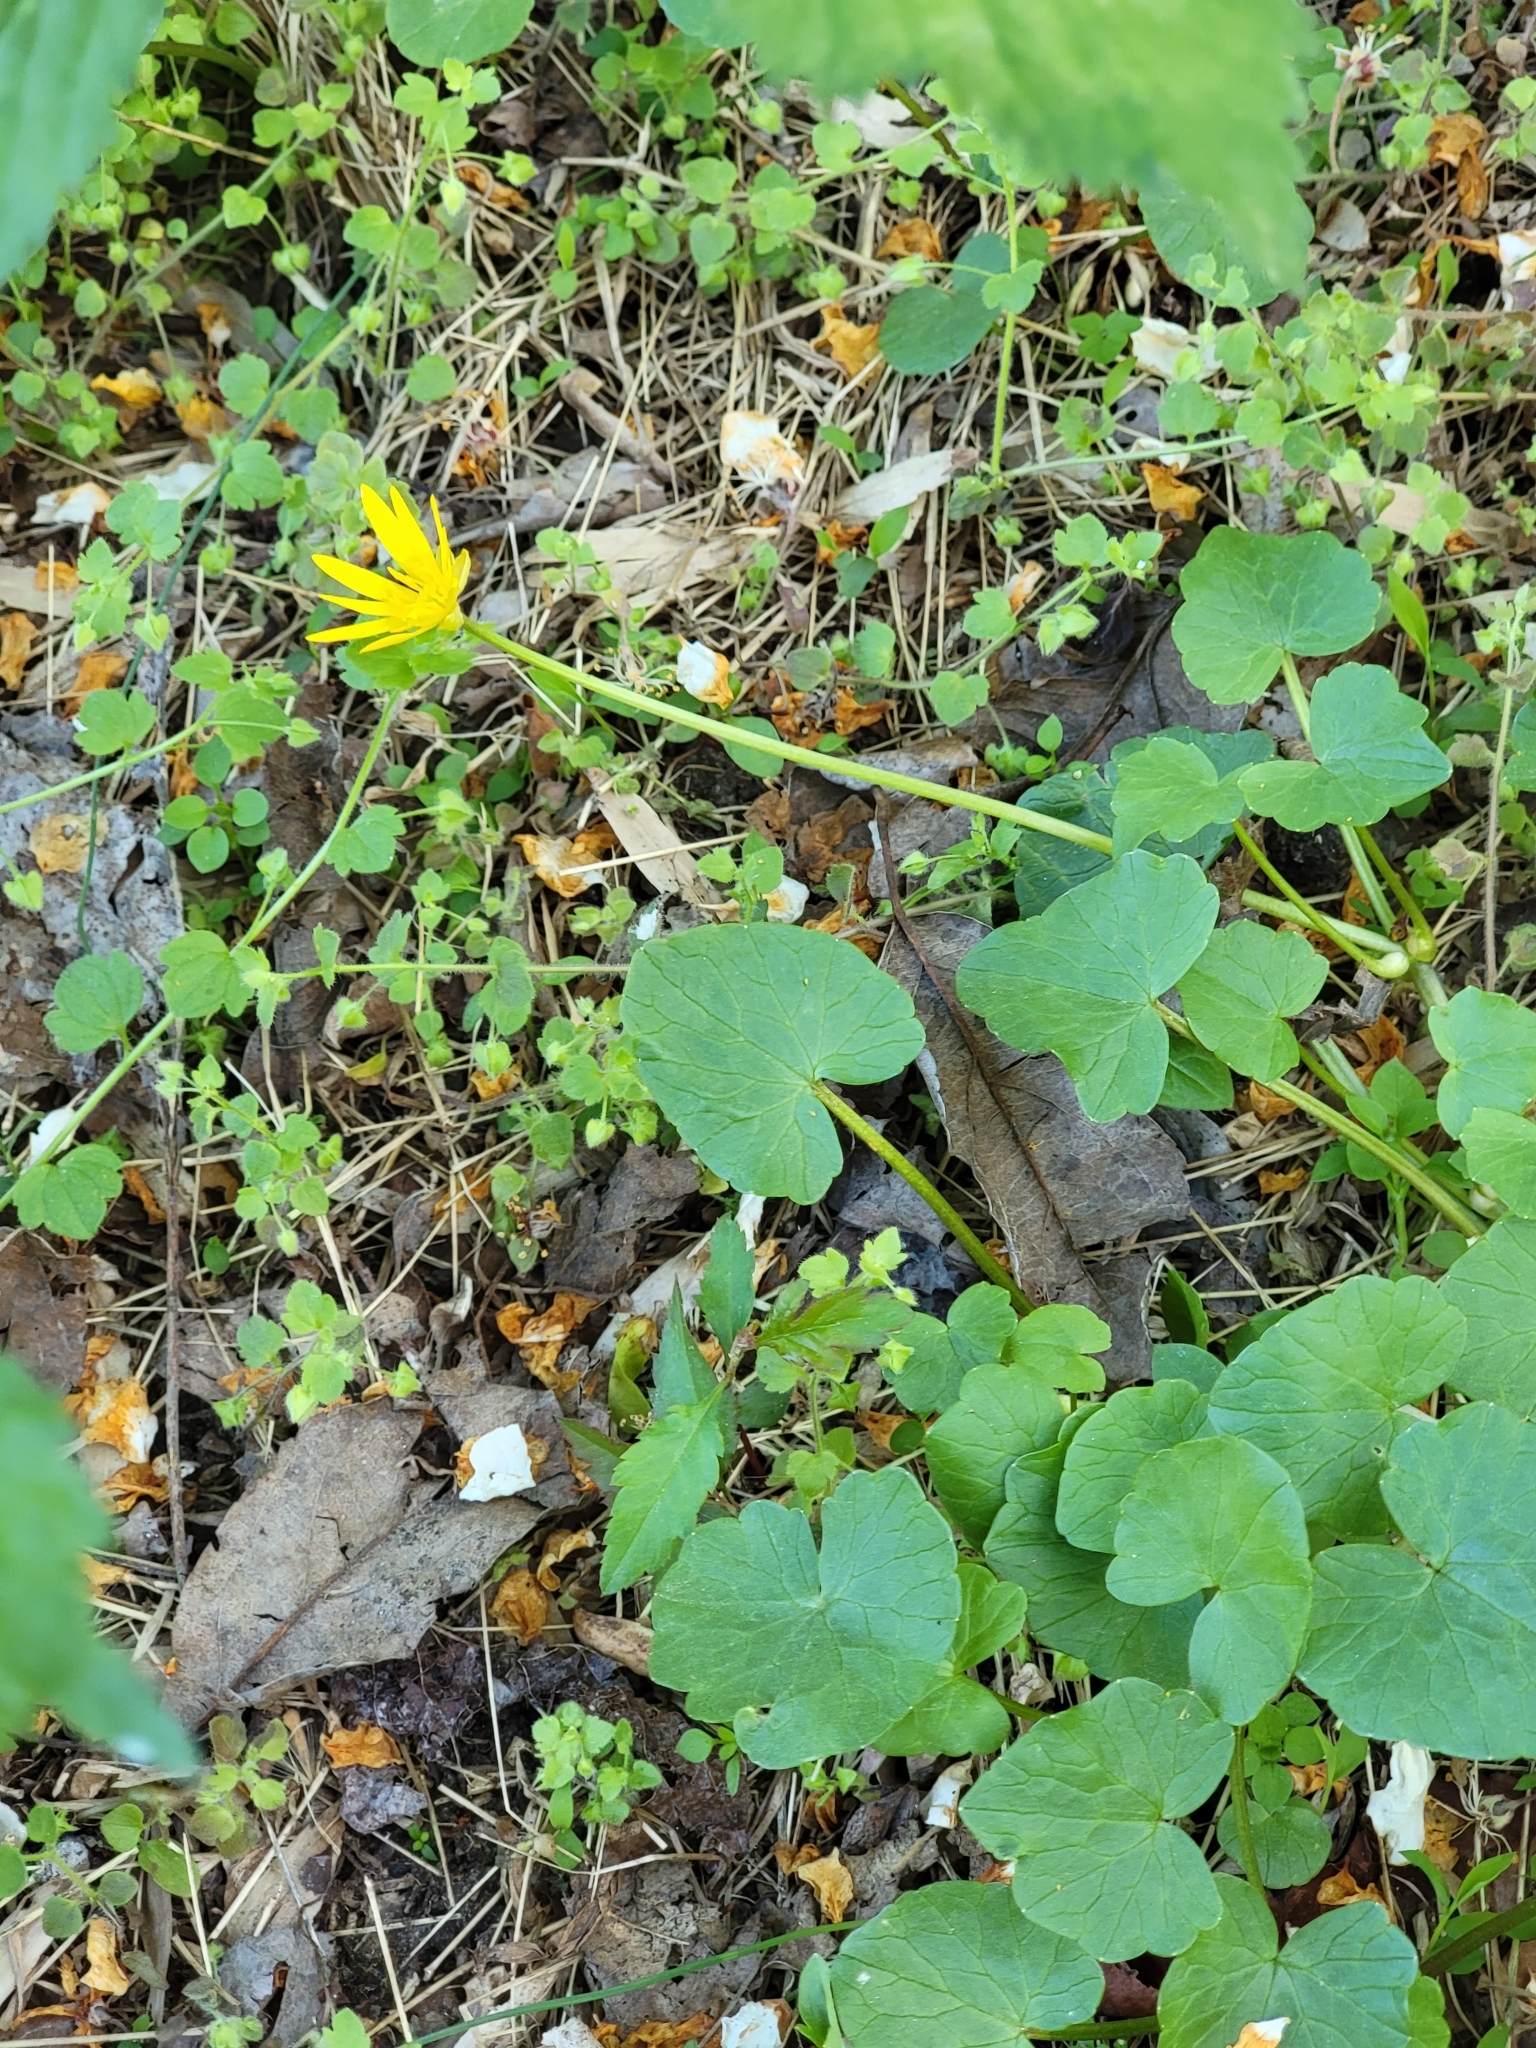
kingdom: Plantae
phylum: Tracheophyta
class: Magnoliopsida
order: Ranunculales
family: Ranunculaceae
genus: Ficaria
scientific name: Ficaria verna
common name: Lesser celandine
